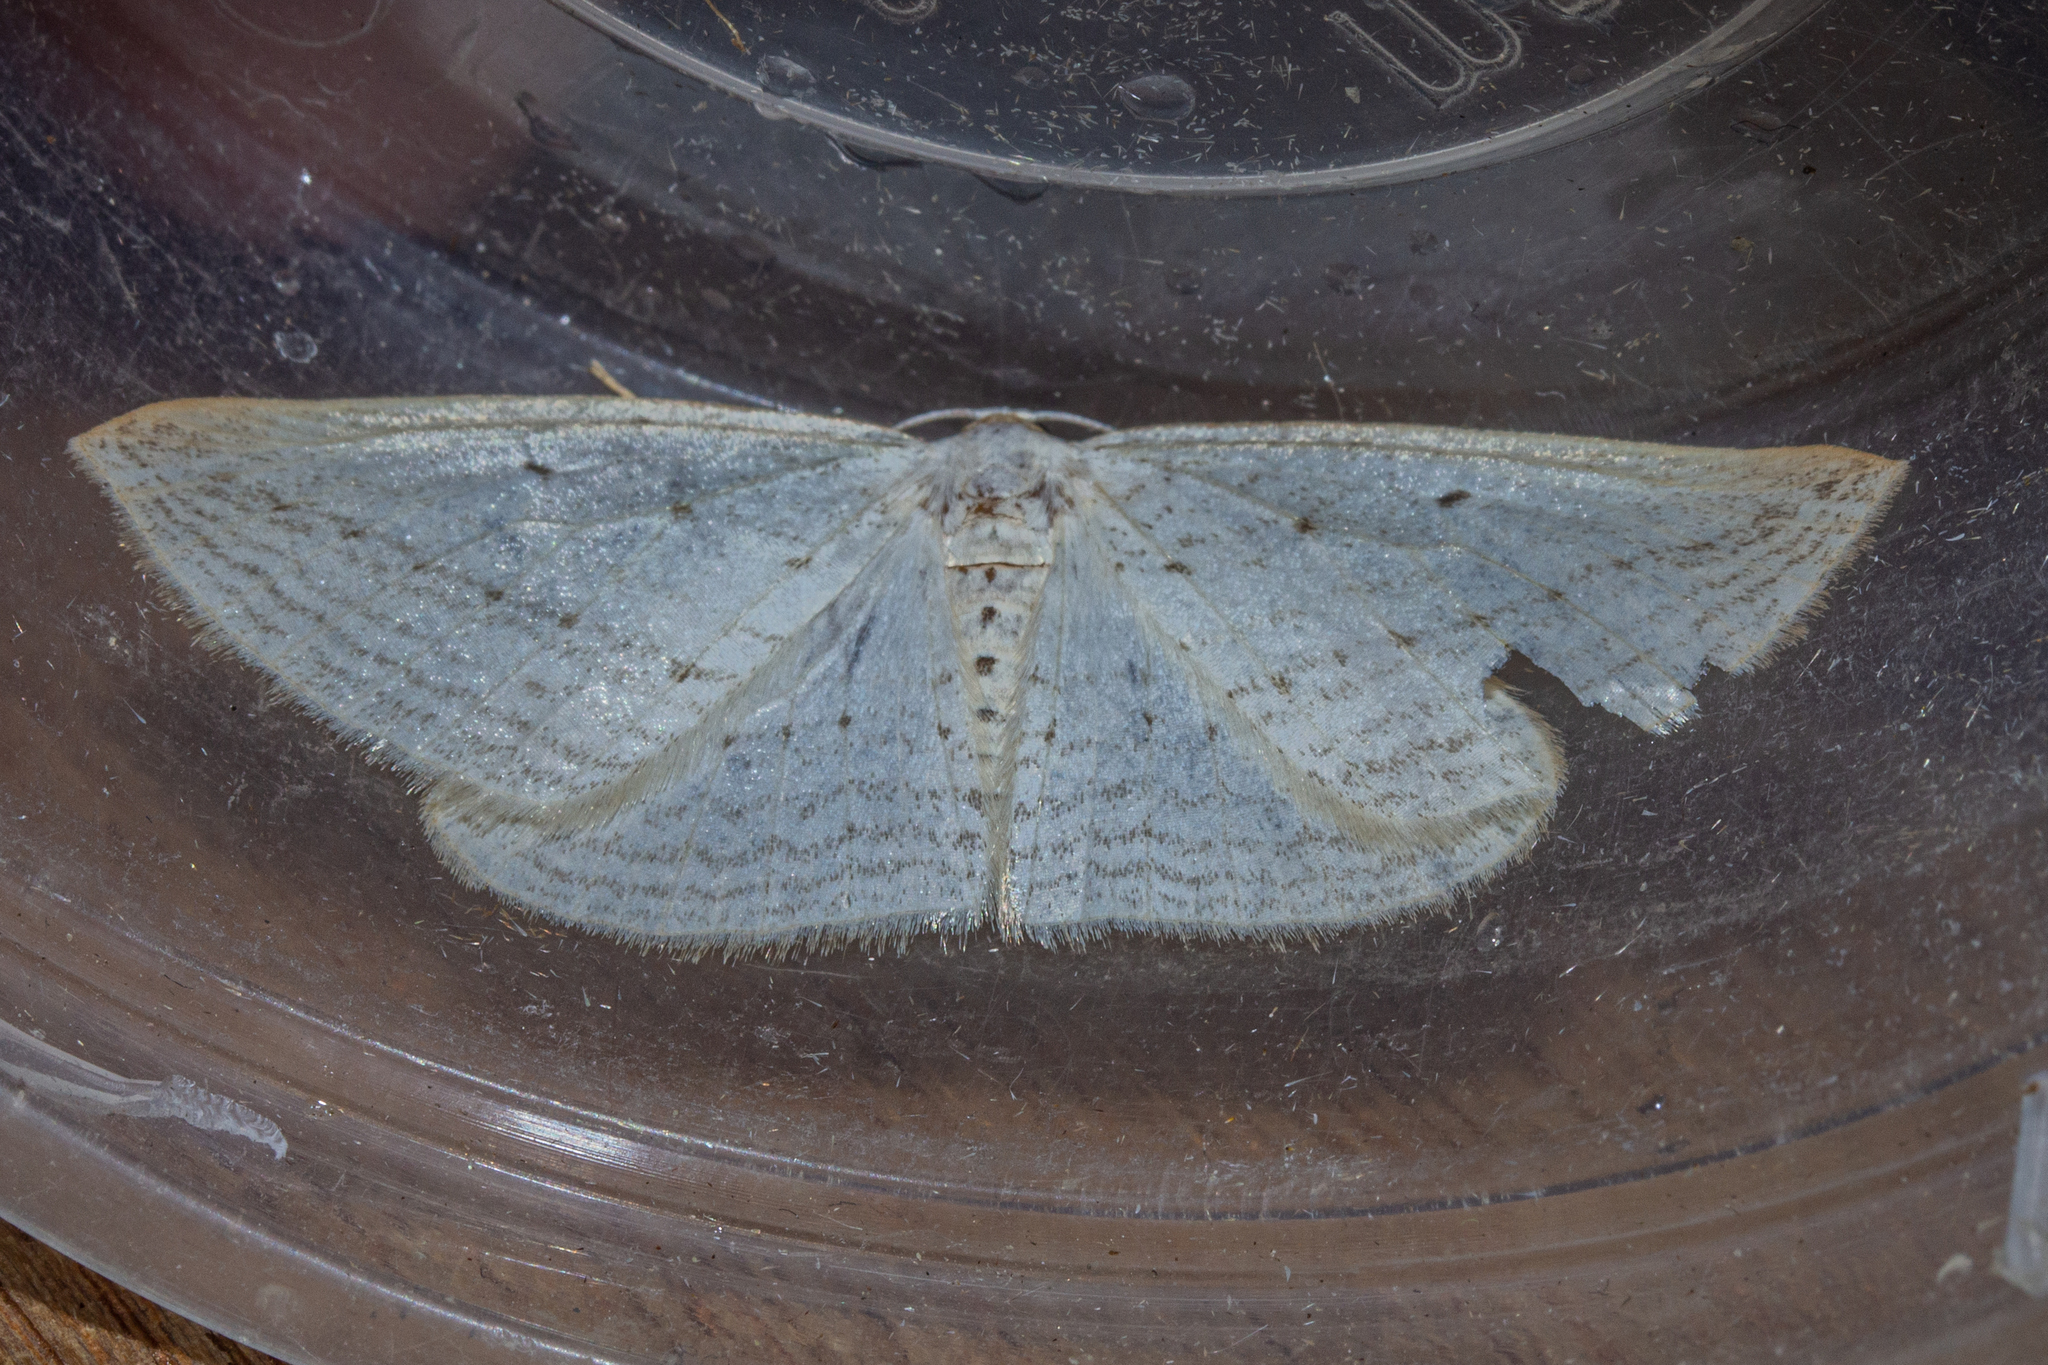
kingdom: Animalia
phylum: Arthropoda
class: Insecta
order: Lepidoptera
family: Geometridae
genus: Orthoclydon
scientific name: Orthoclydon praefectata
